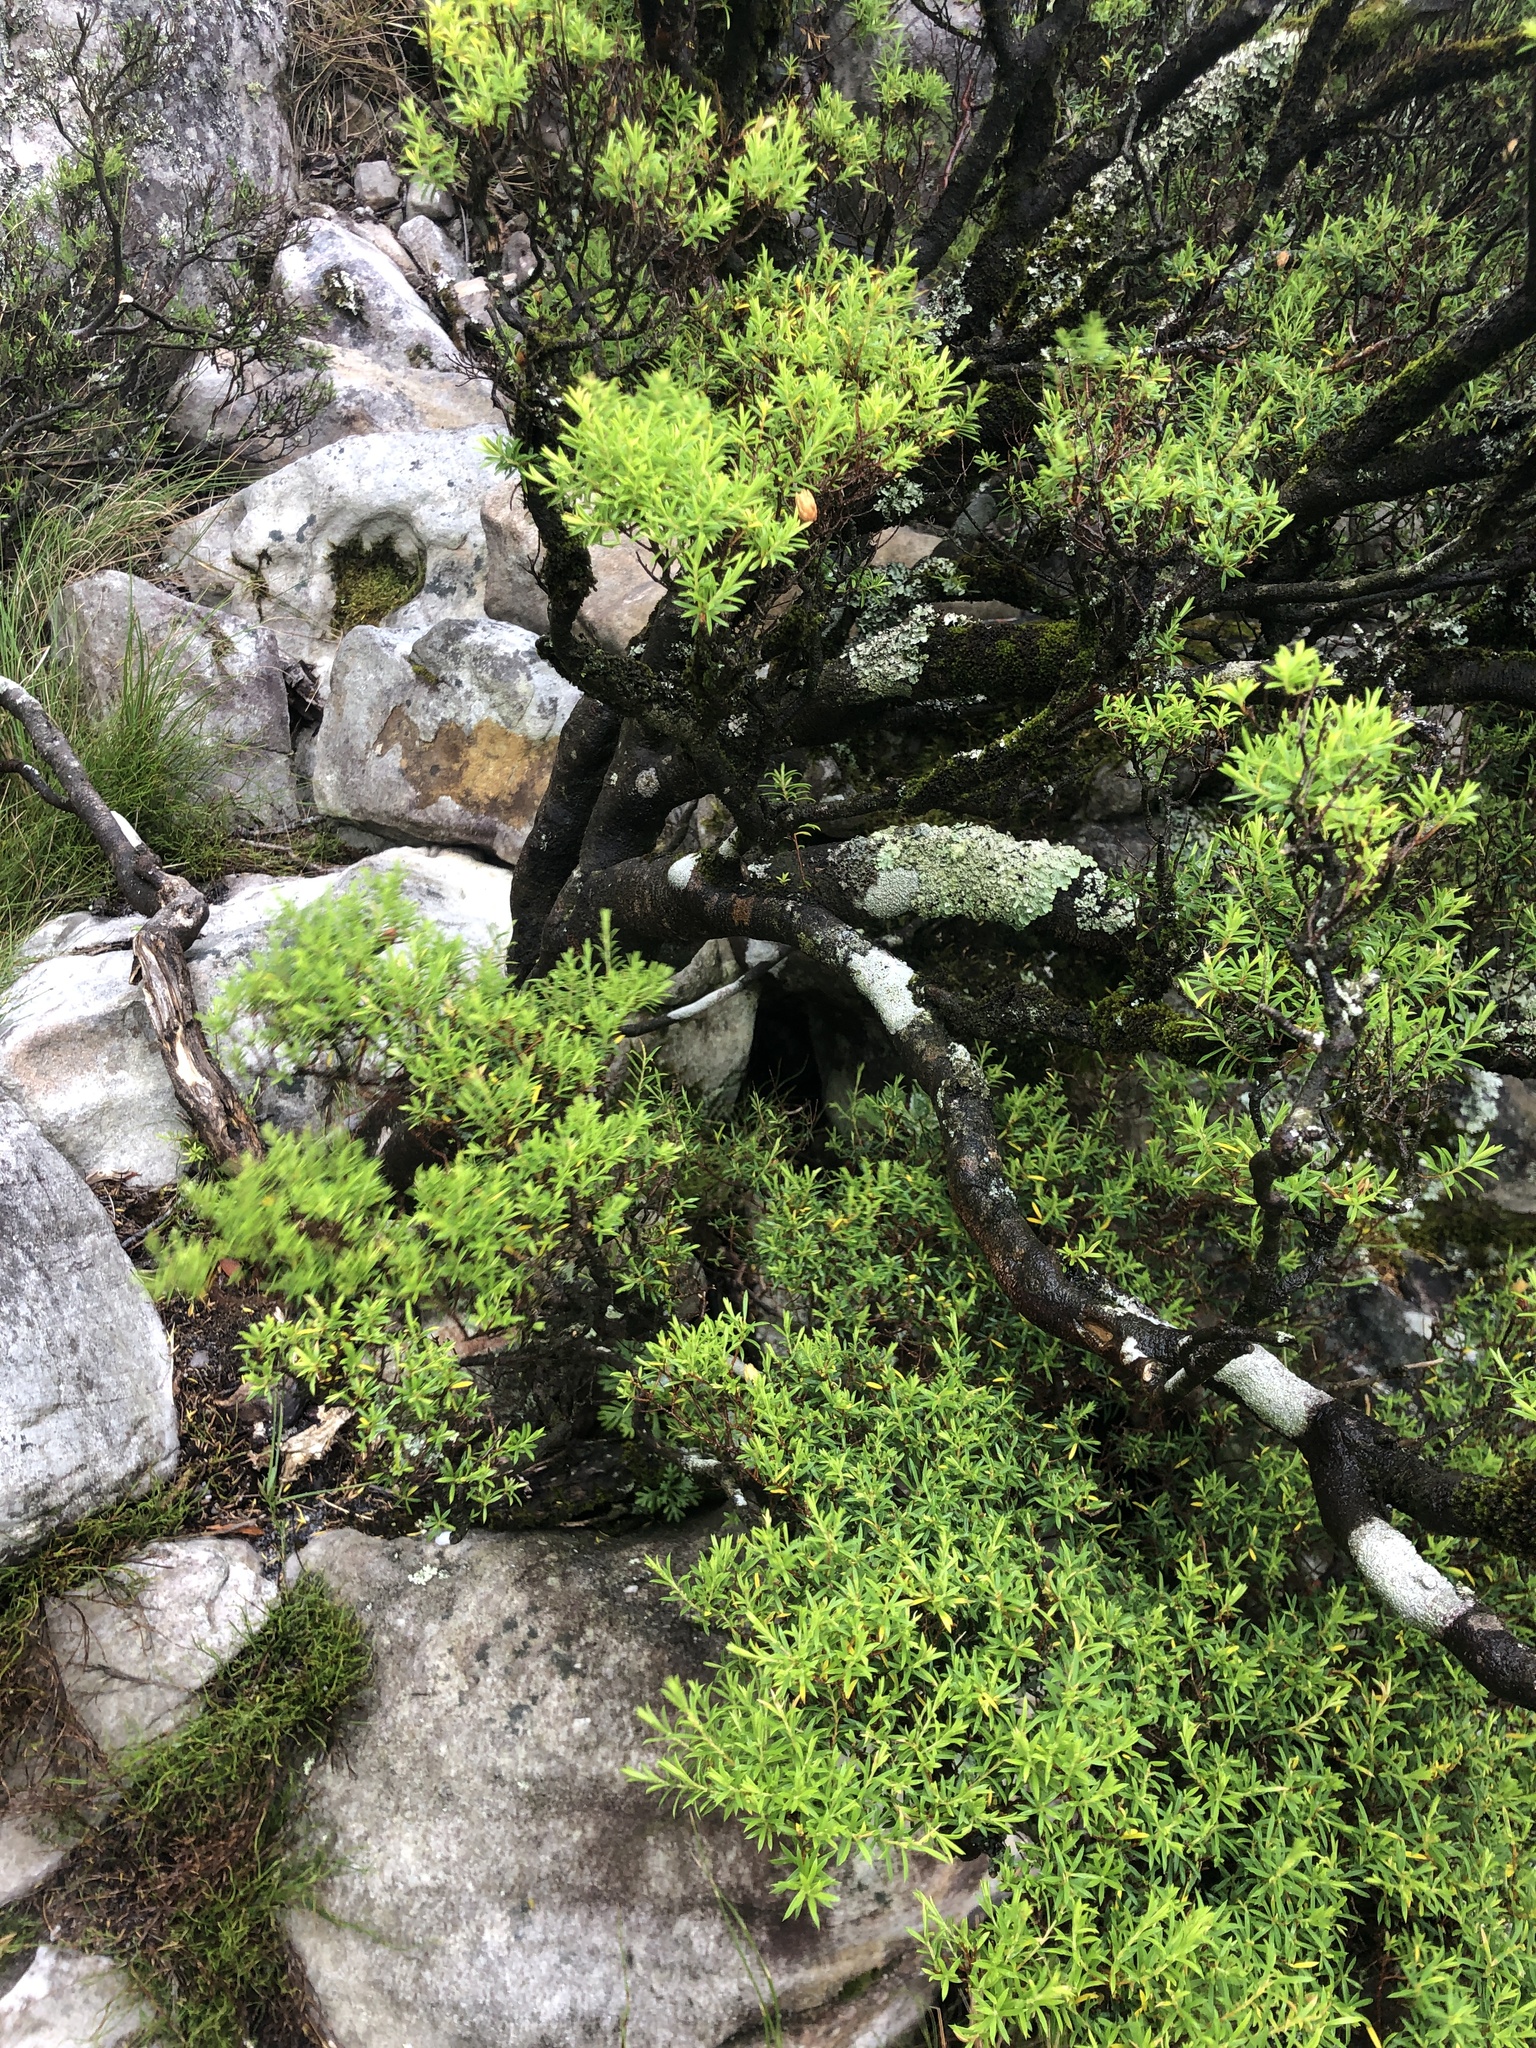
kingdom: Plantae
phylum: Tracheophyta
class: Magnoliopsida
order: Sapindales
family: Rutaceae
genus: Coleonema
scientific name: Coleonema album
